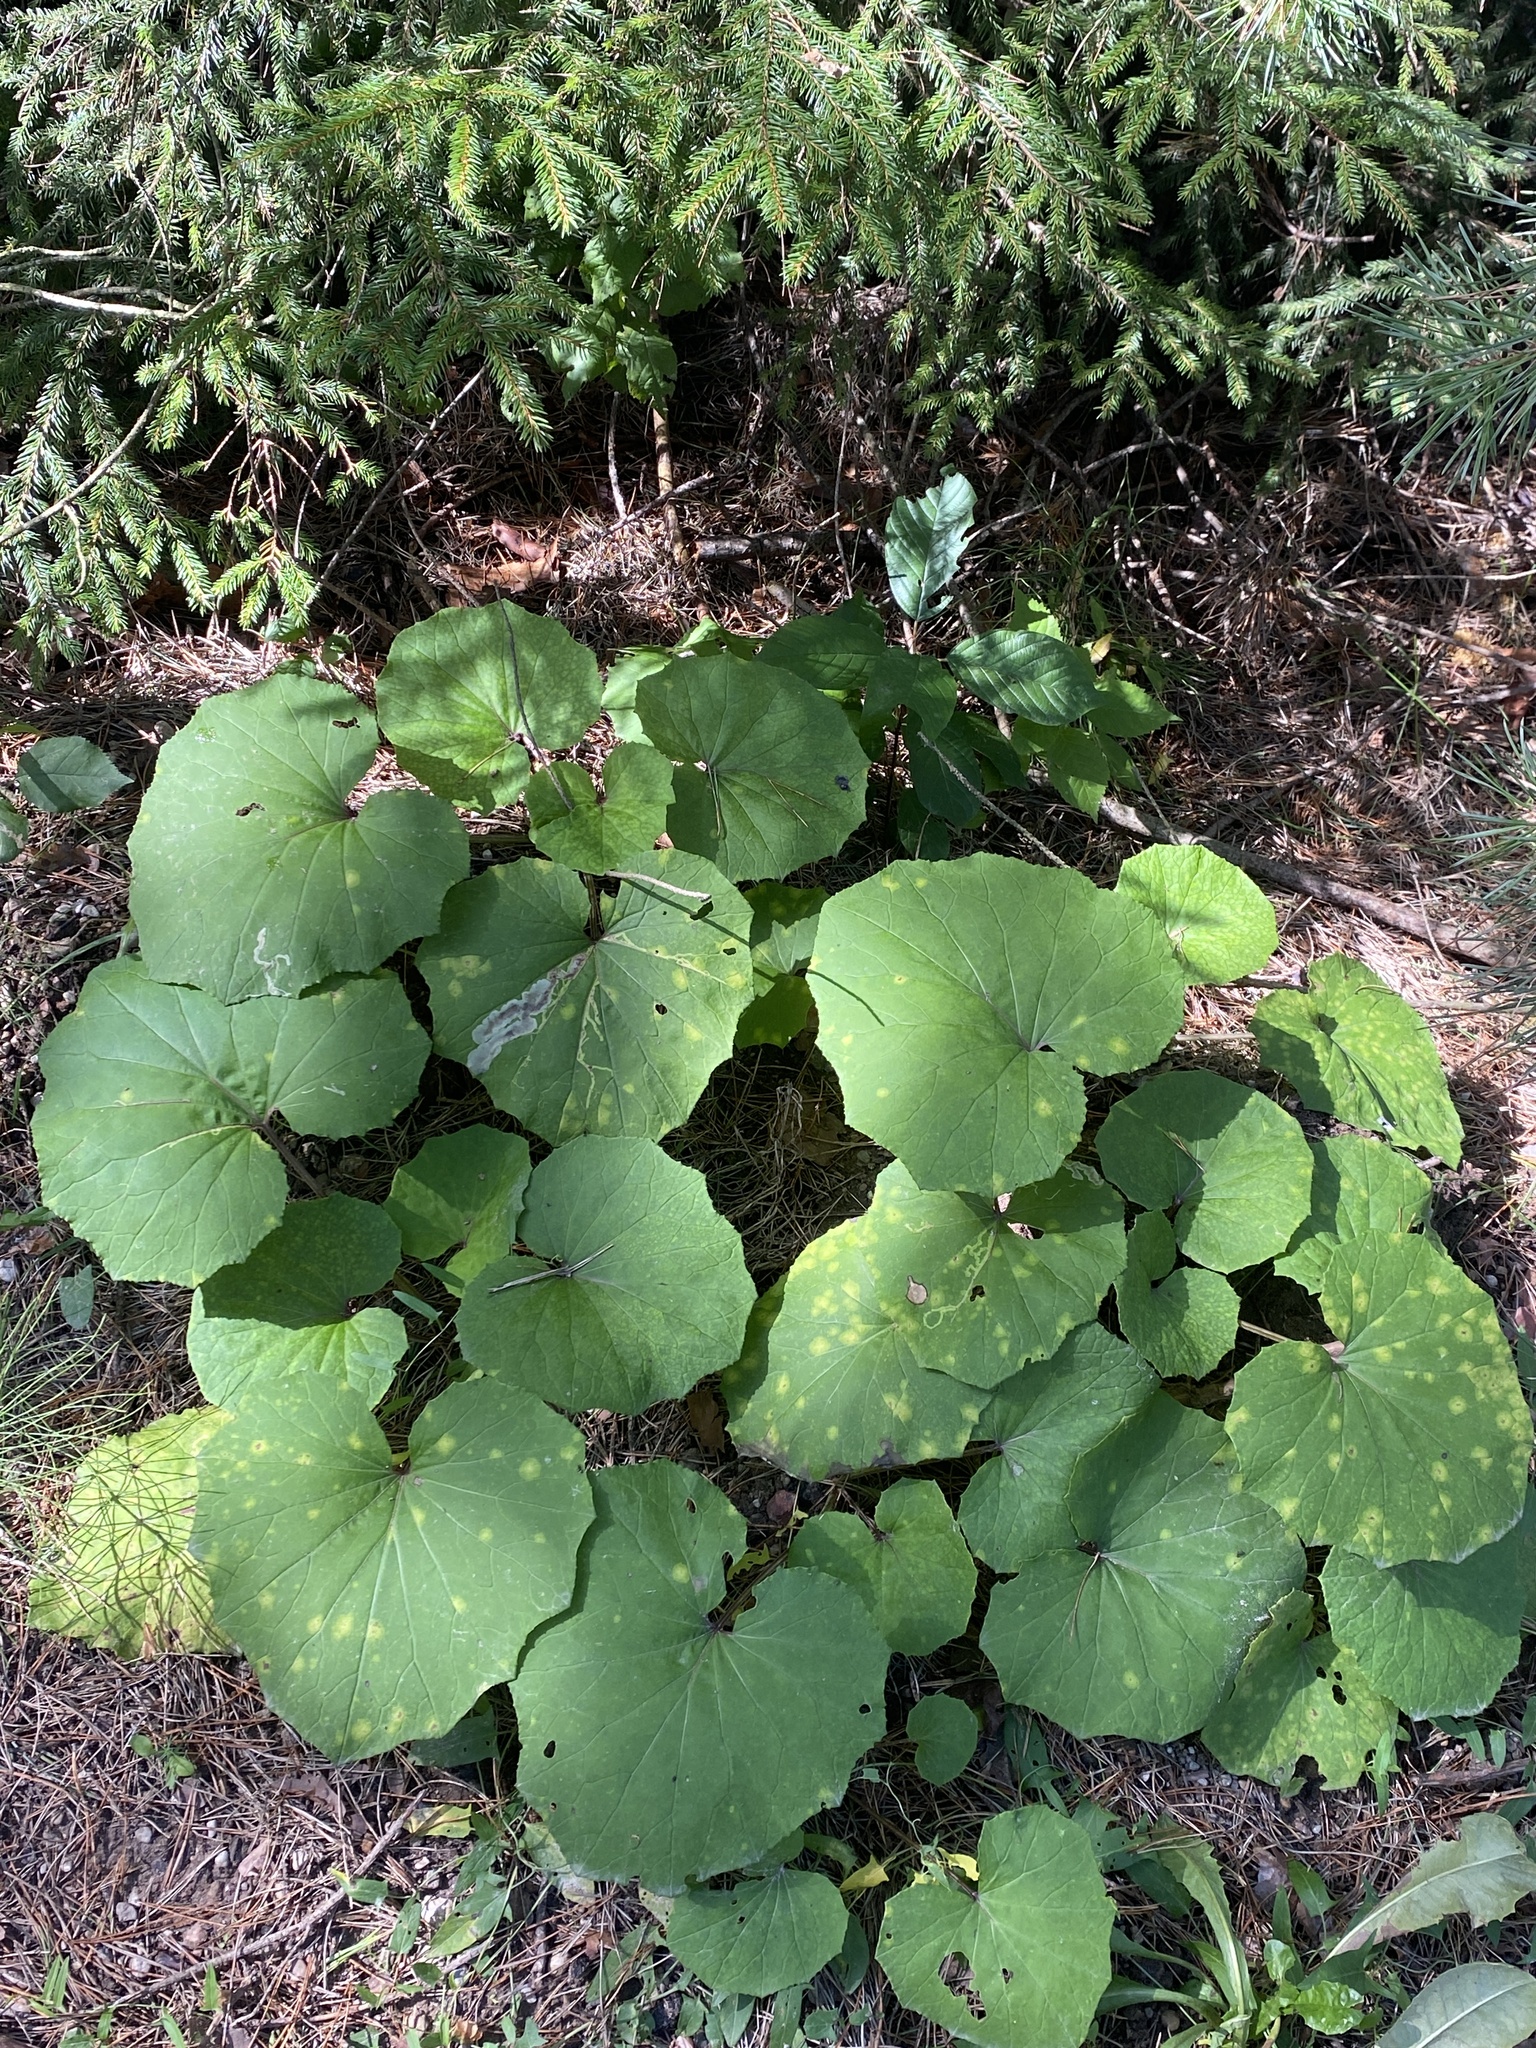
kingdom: Plantae
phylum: Tracheophyta
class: Magnoliopsida
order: Asterales
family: Asteraceae
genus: Tussilago
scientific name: Tussilago farfara
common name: Coltsfoot
